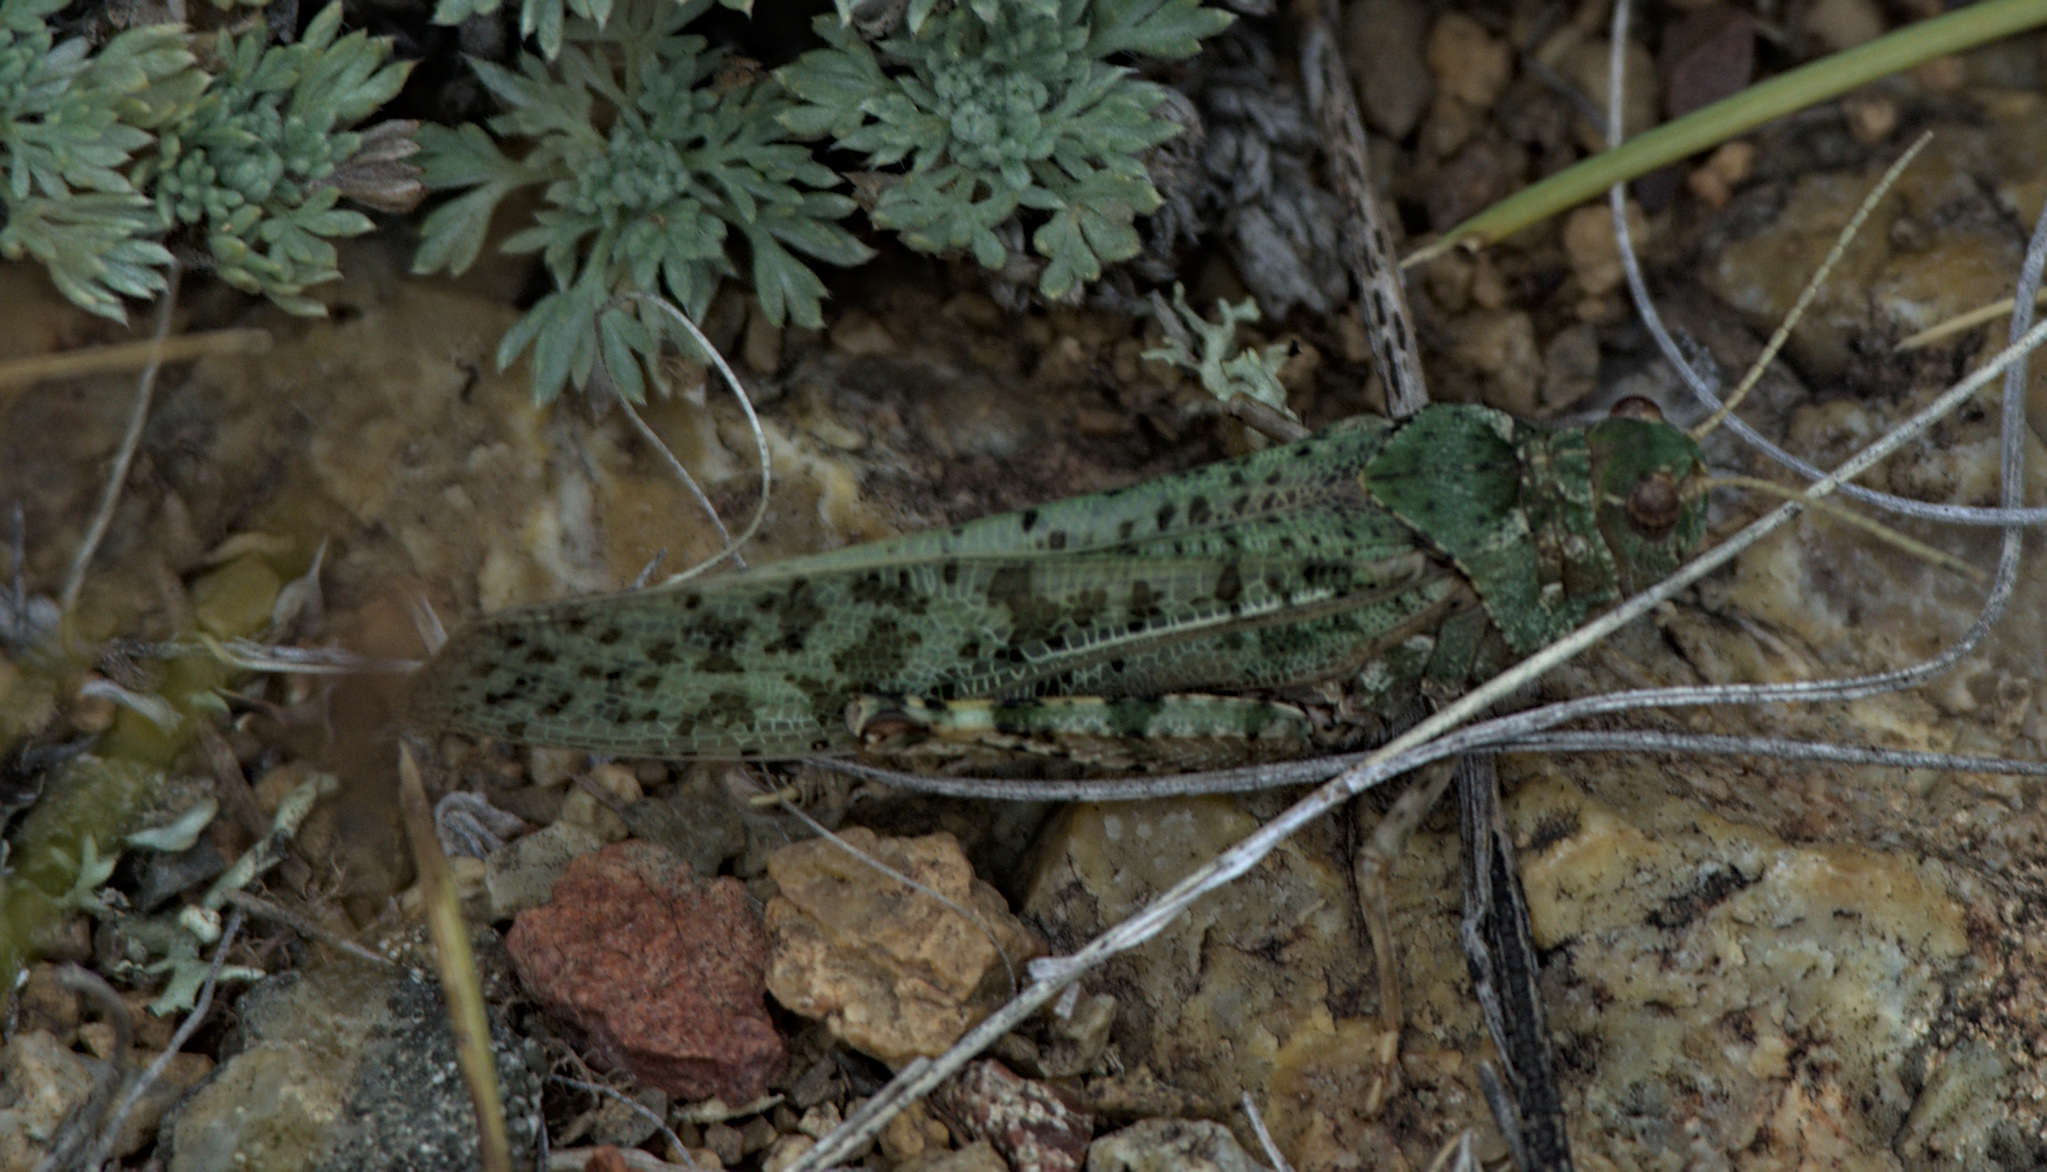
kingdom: Animalia
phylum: Arthropoda
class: Insecta
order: Orthoptera
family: Acrididae
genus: Angaracris
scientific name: Angaracris barabensis
